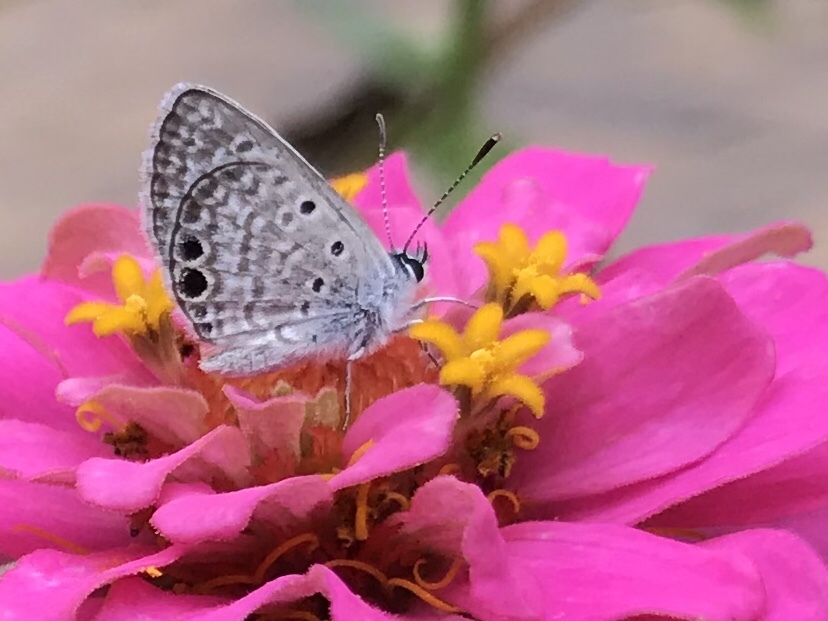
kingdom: Animalia
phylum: Arthropoda
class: Insecta
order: Lepidoptera
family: Lycaenidae
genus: Hemiargus
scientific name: Hemiargus ceraunus
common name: Ceraunus blue
